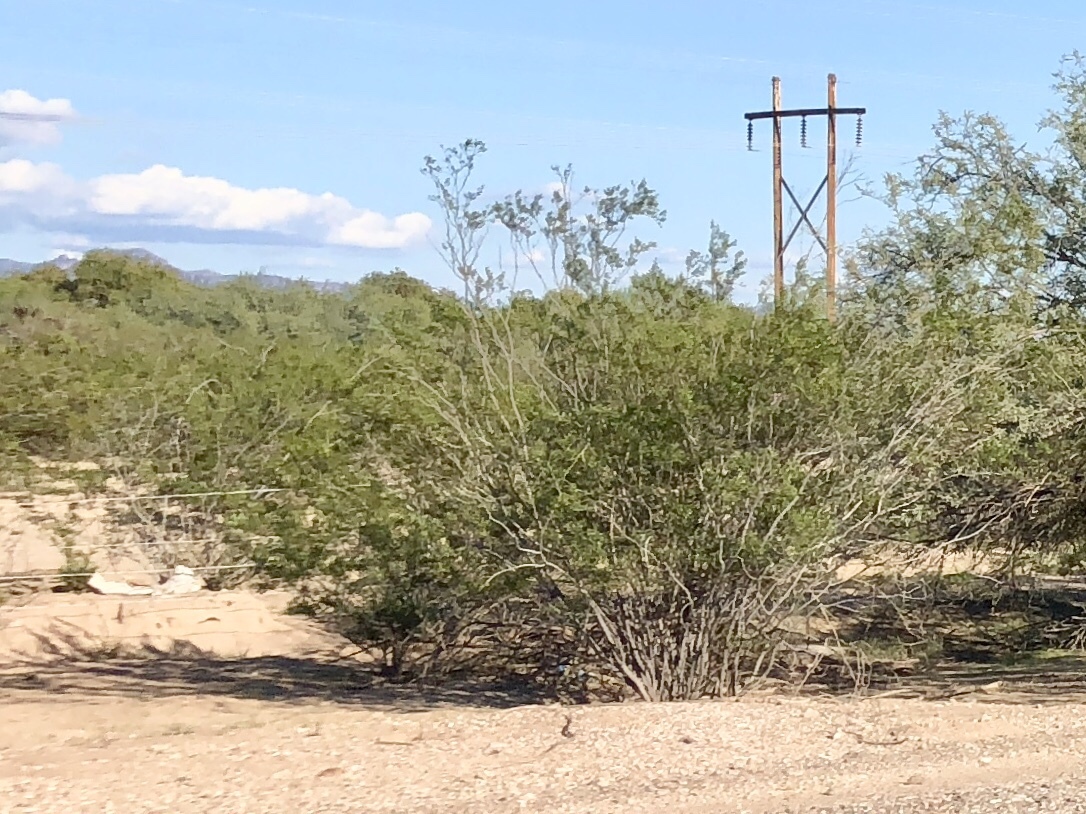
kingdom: Plantae
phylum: Tracheophyta
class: Magnoliopsida
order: Zygophyllales
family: Zygophyllaceae
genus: Larrea
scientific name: Larrea tridentata
